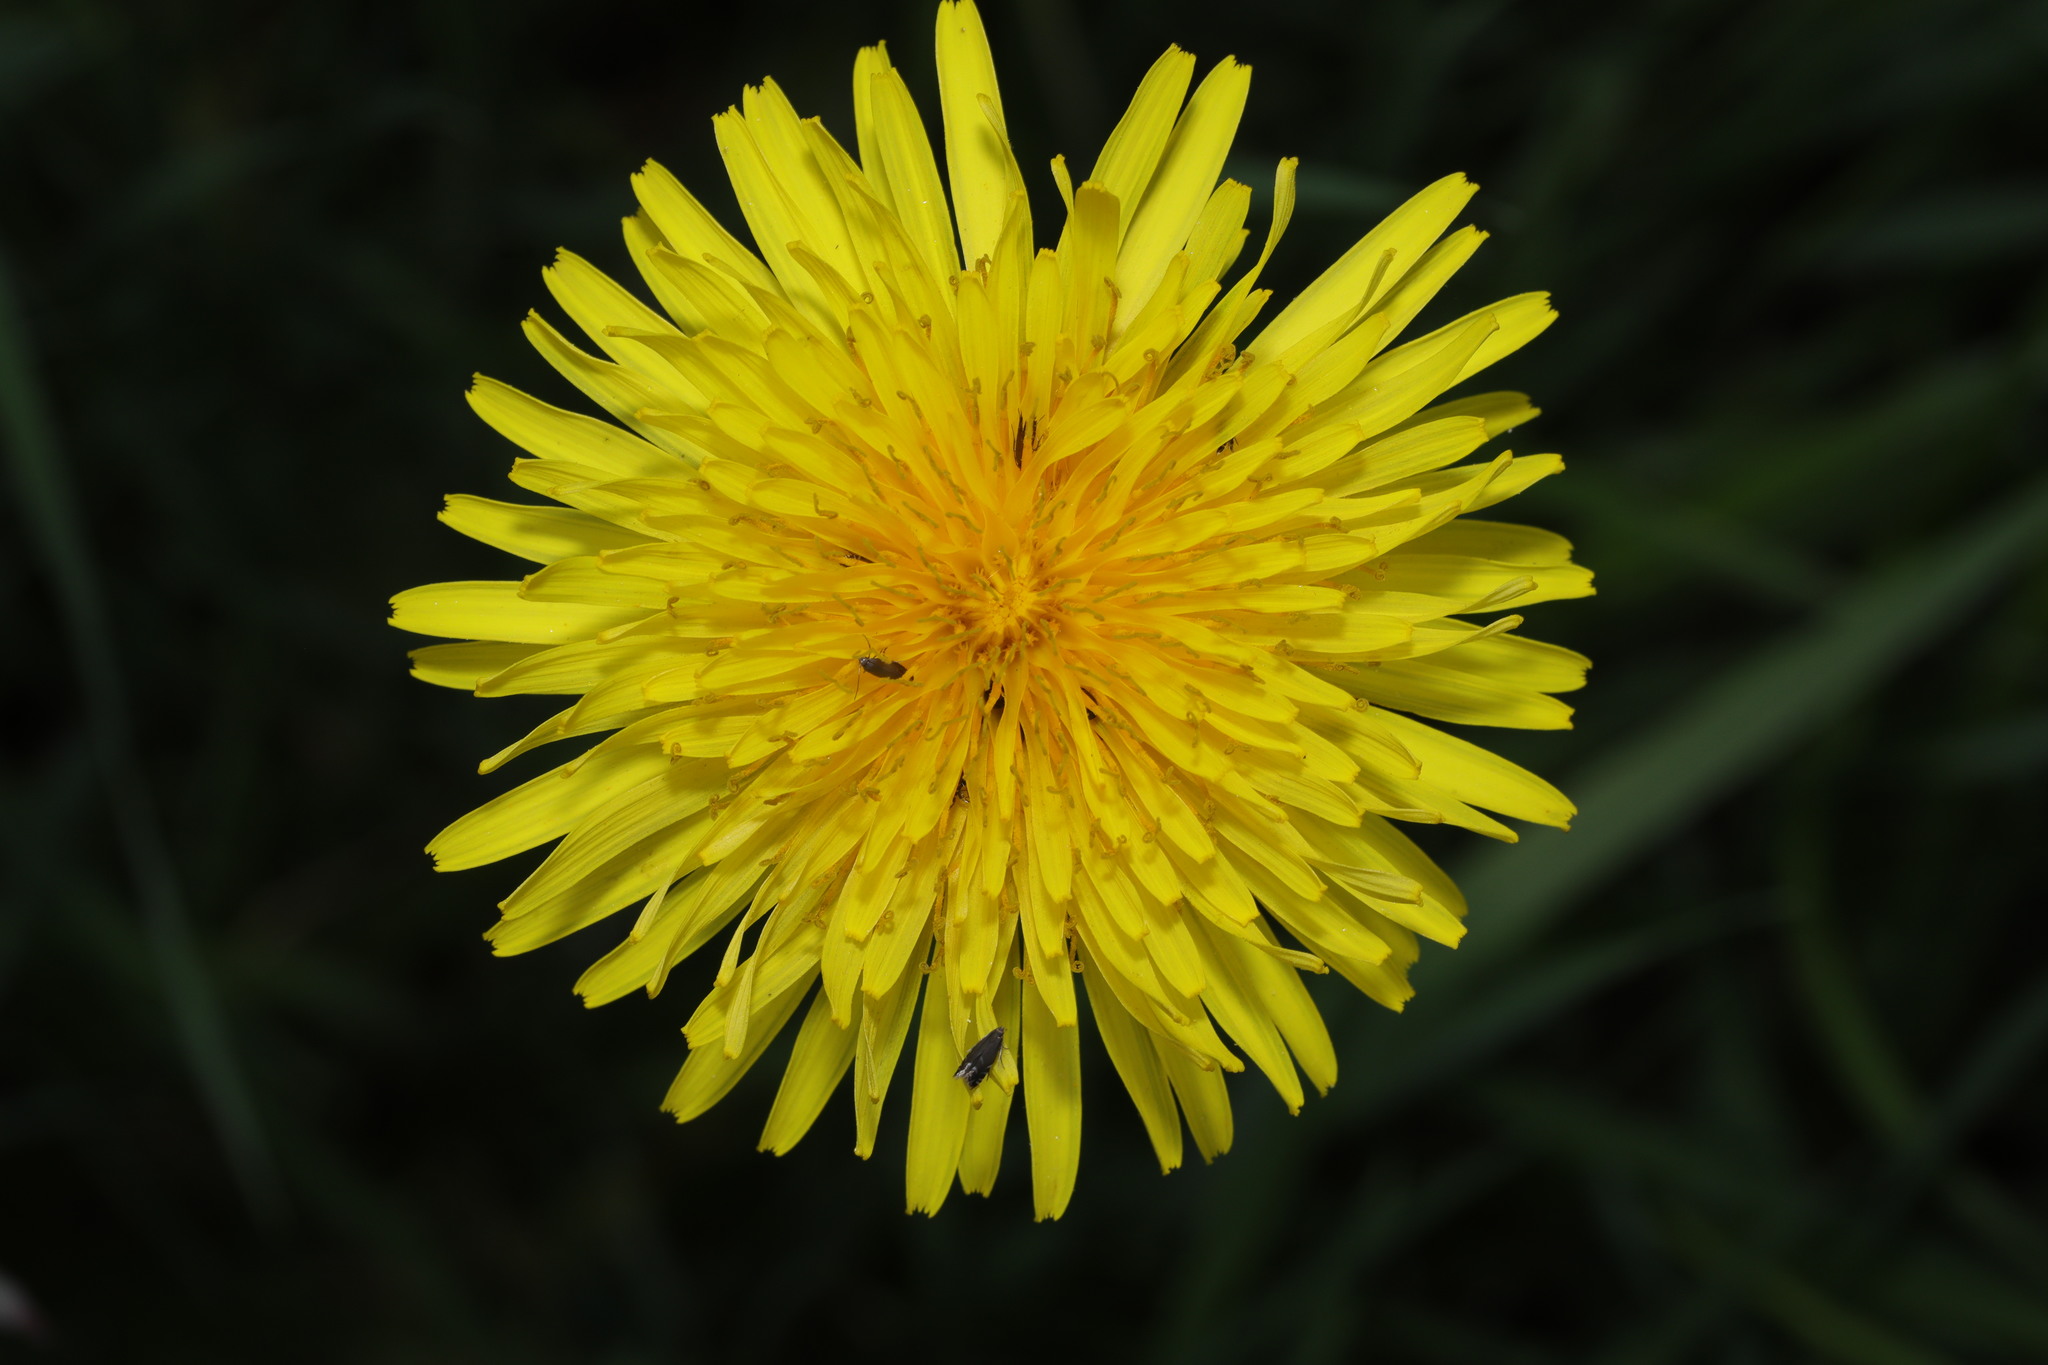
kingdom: Plantae
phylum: Tracheophyta
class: Magnoliopsida
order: Asterales
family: Asteraceae
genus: Taraxacum
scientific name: Taraxacum officinale
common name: Common dandelion
